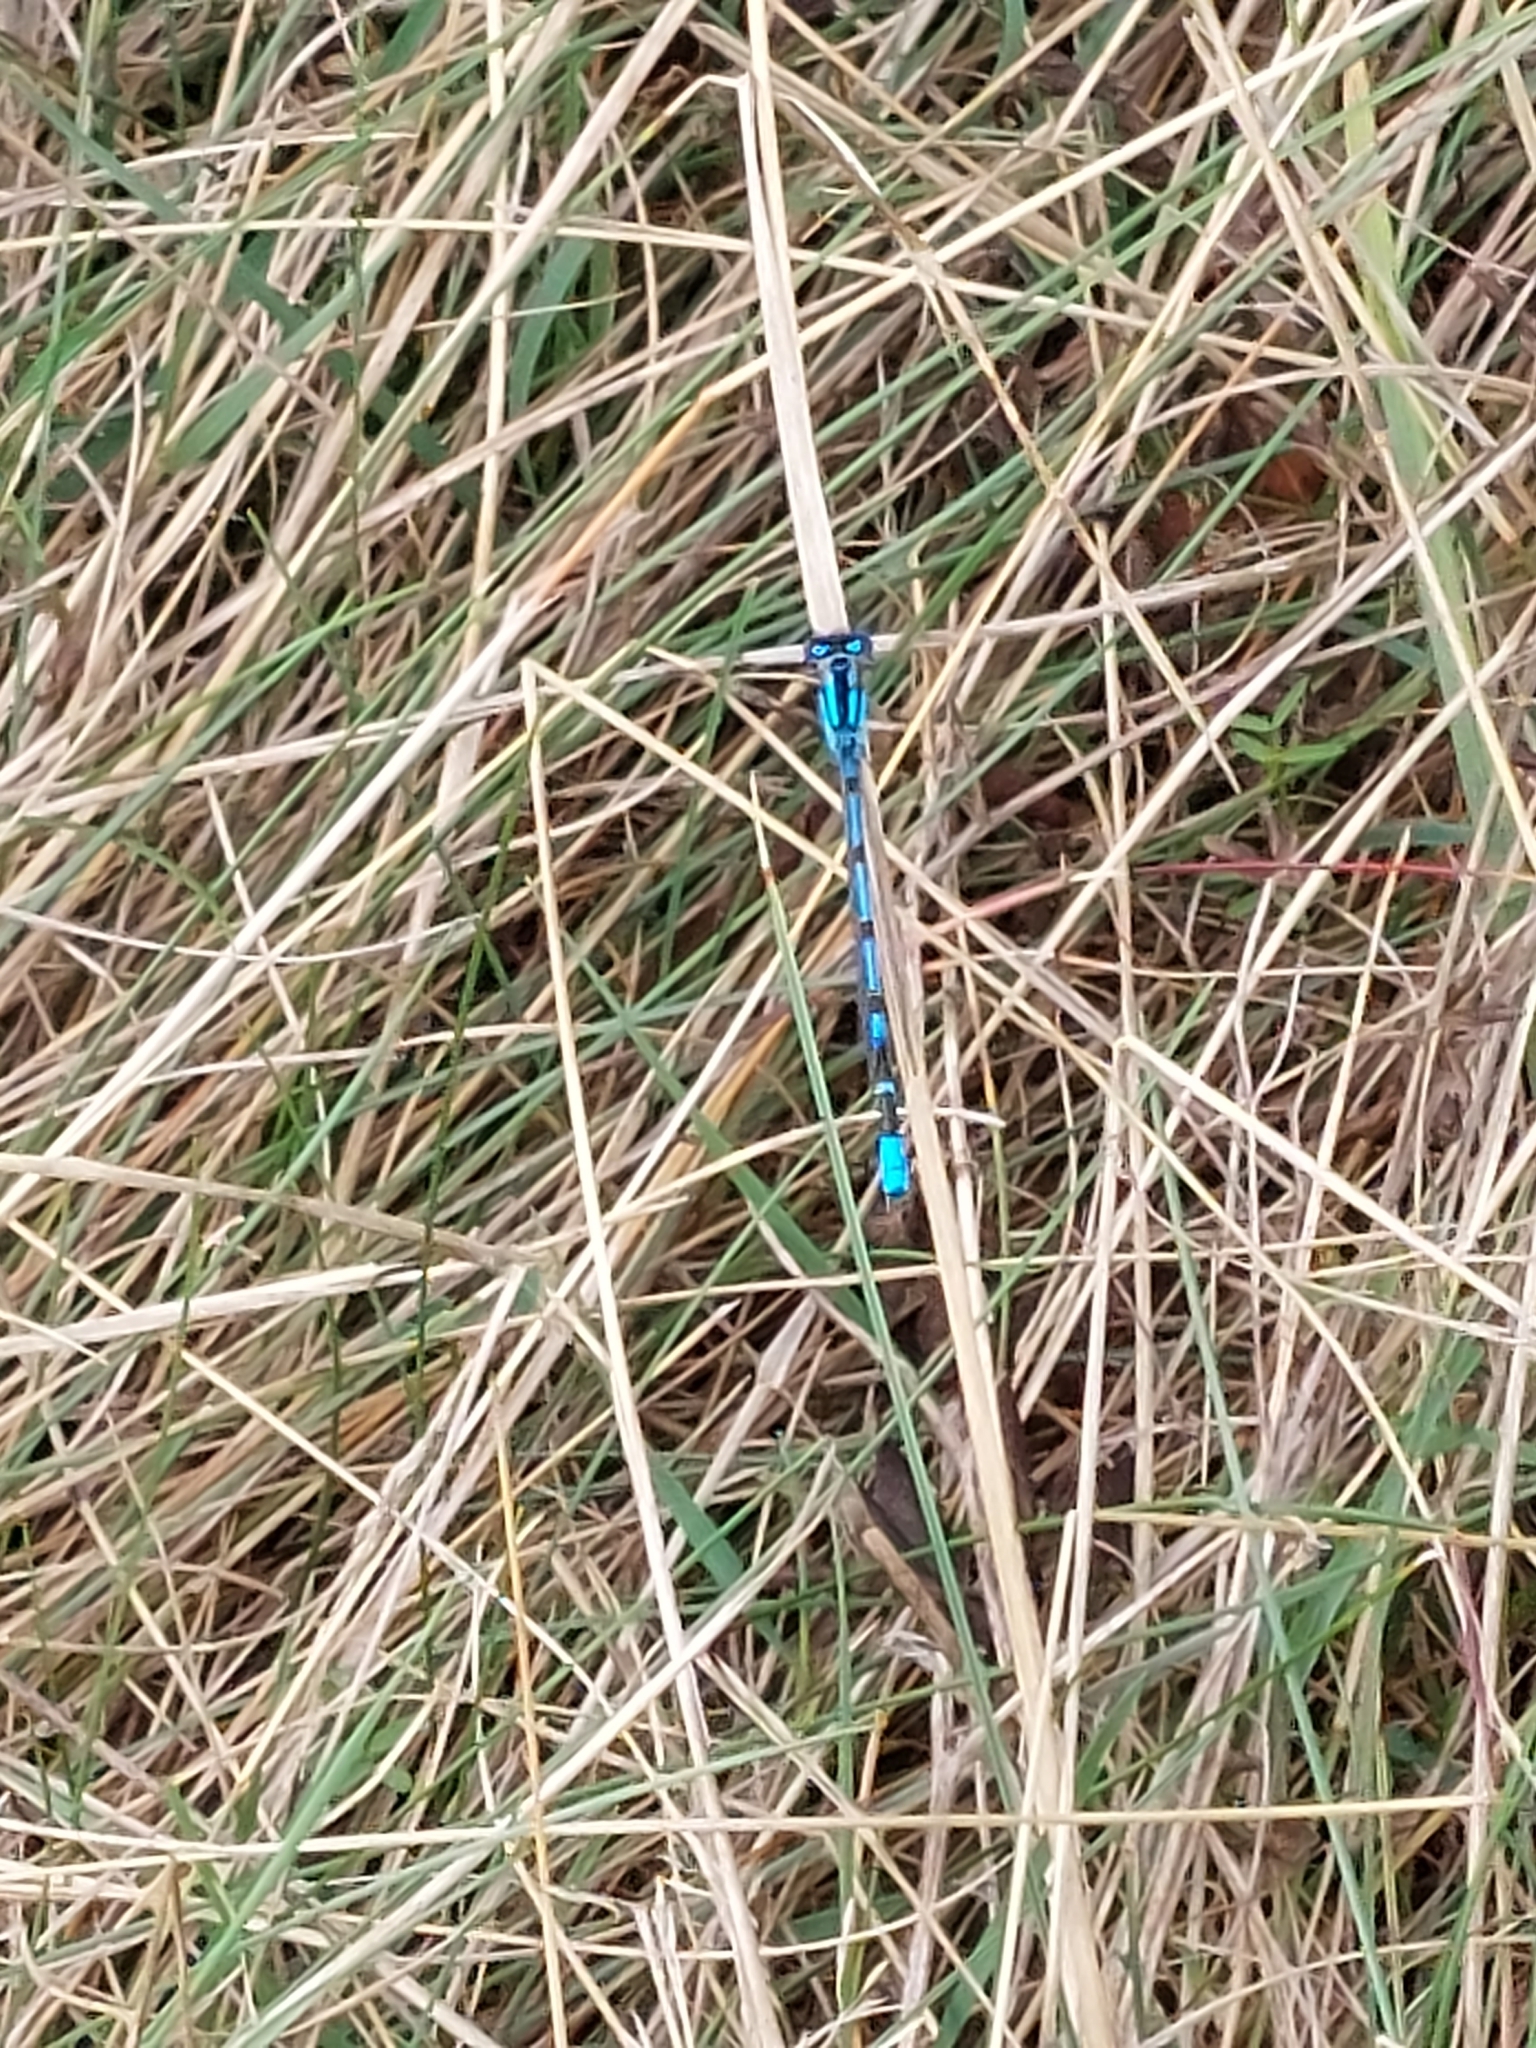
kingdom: Animalia
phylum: Arthropoda
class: Insecta
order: Odonata
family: Coenagrionidae
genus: Enallagma
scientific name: Enallagma cyathigerum
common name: Common blue damselfly
